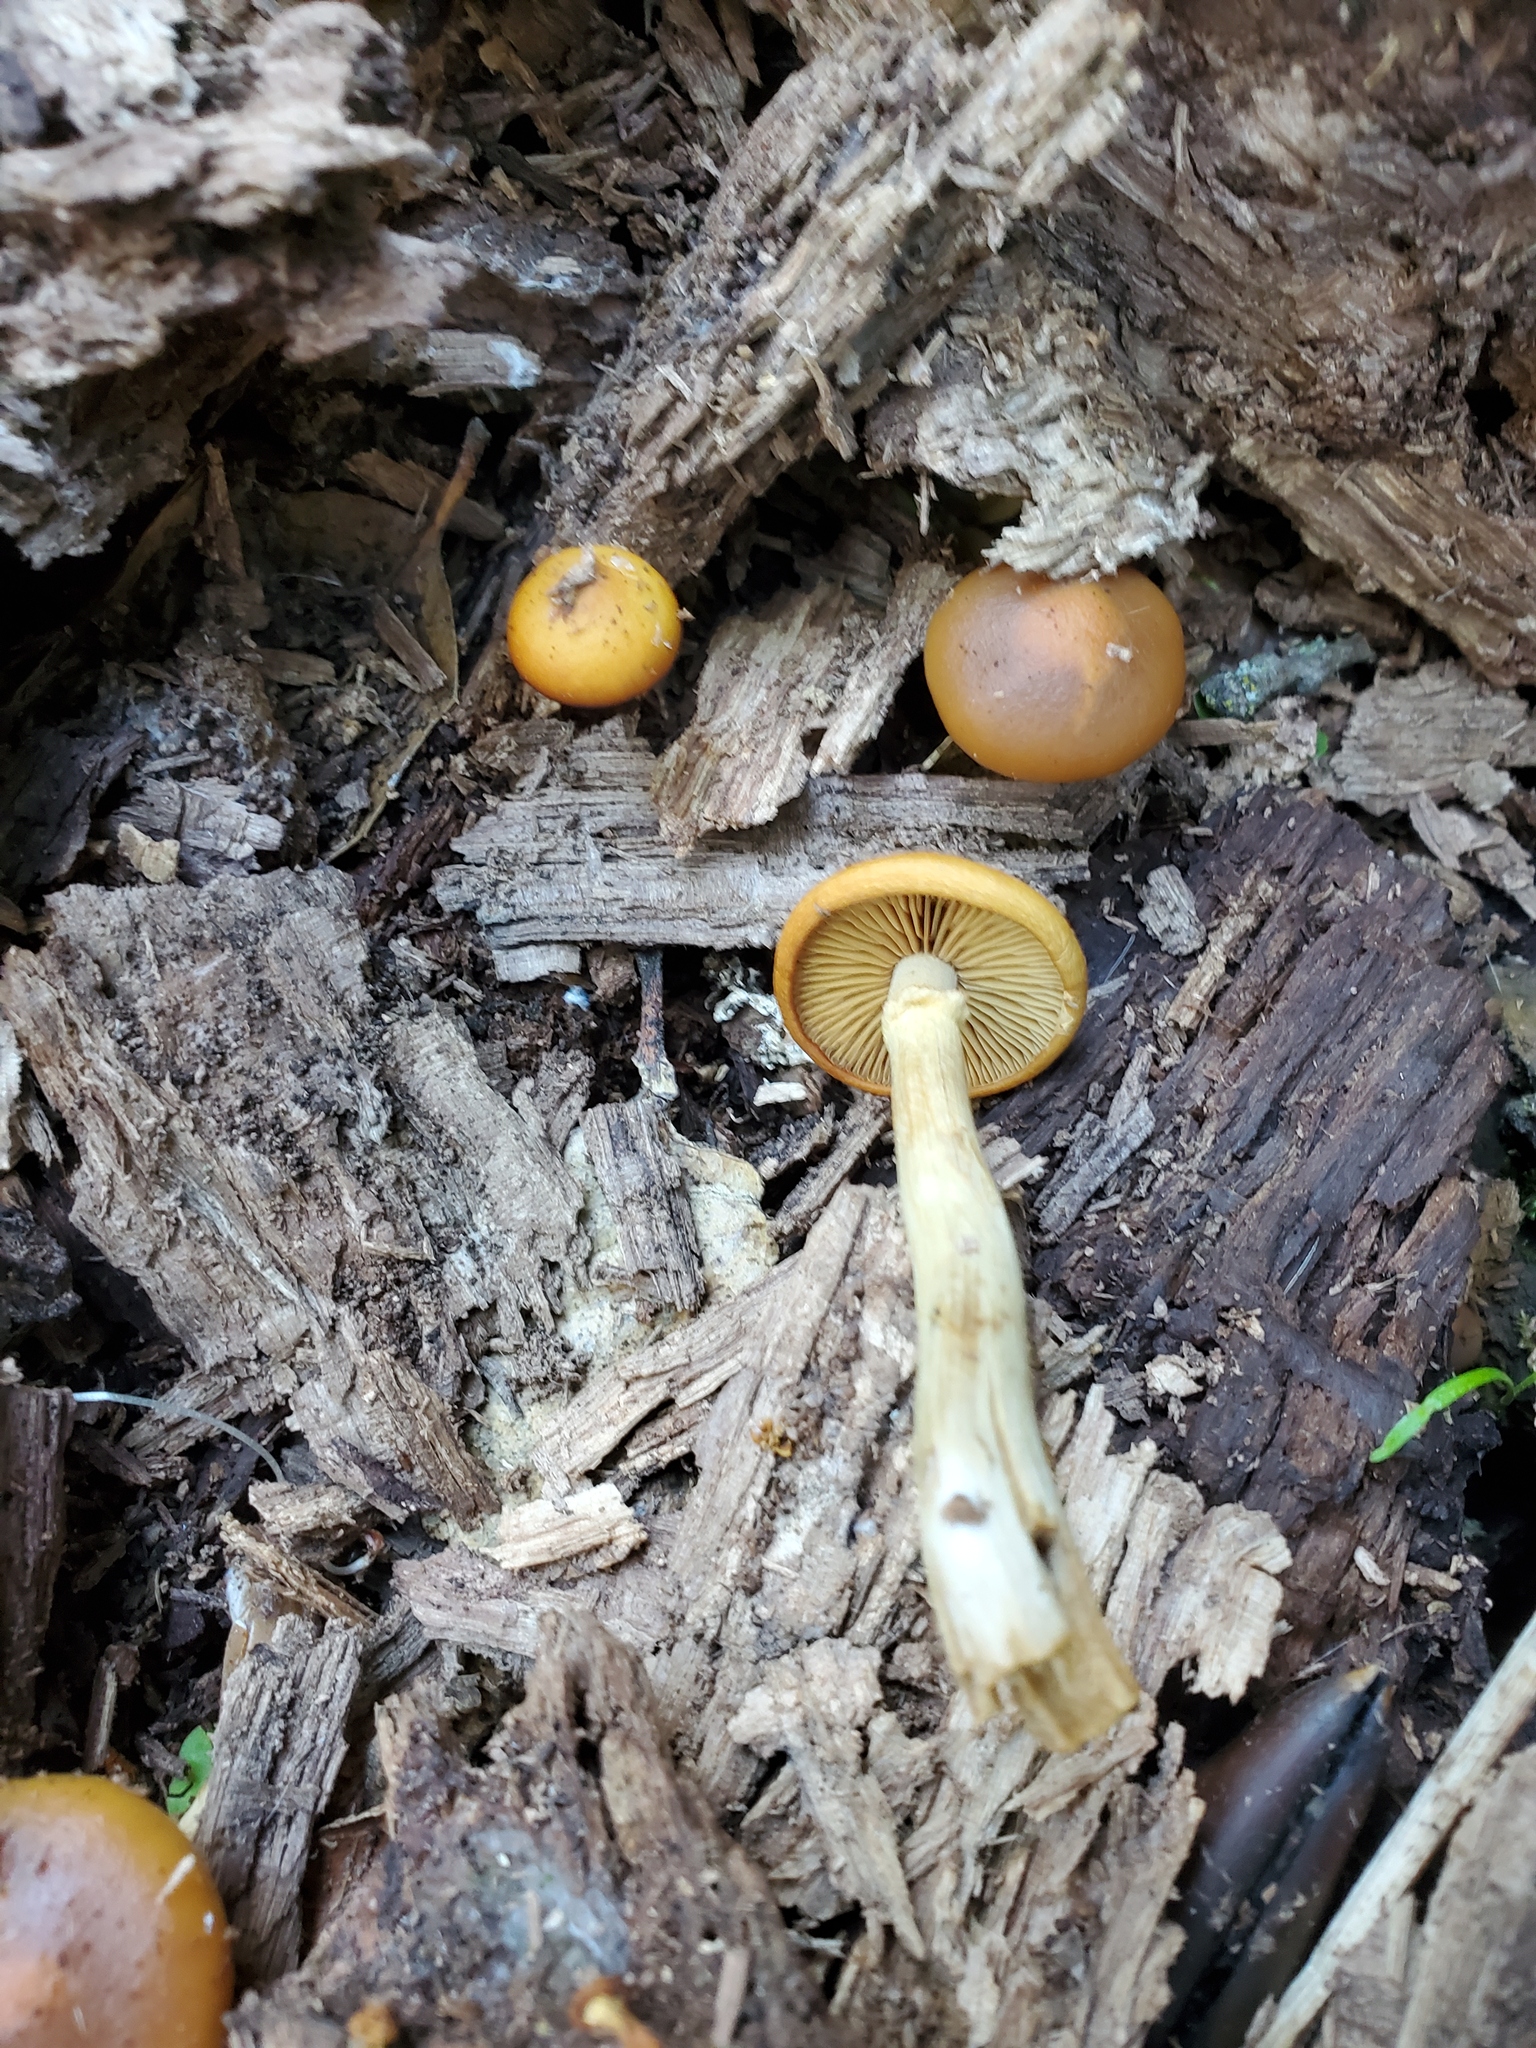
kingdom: Fungi
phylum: Basidiomycota
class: Agaricomycetes
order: Agaricales
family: Hymenogastraceae
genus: Galerina
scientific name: Galerina marginata
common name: Funeral bell
